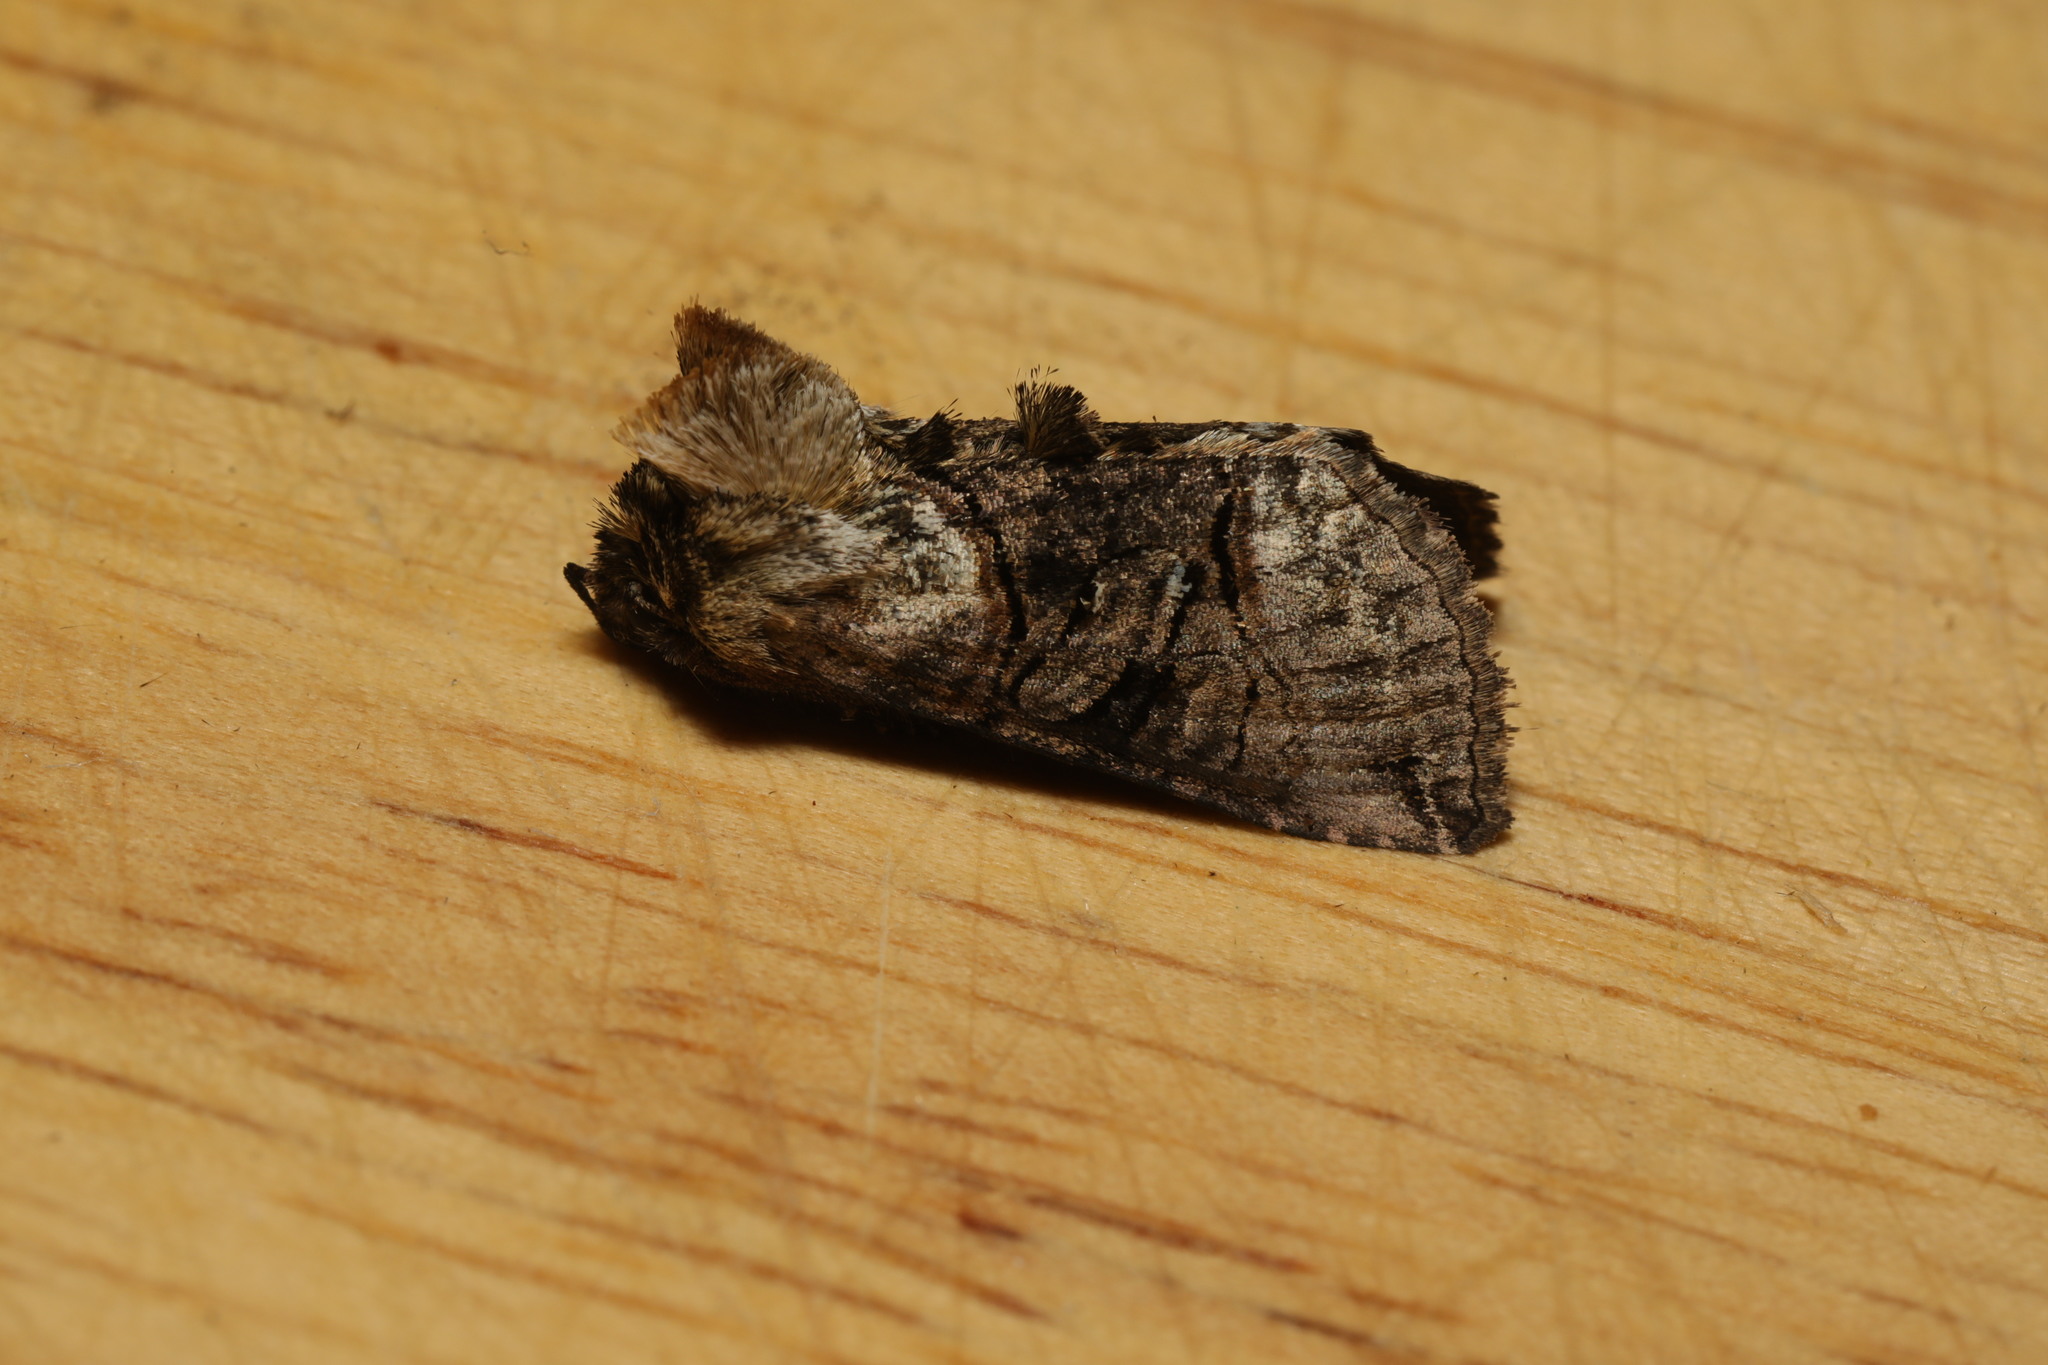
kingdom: Animalia
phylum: Arthropoda
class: Insecta
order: Lepidoptera
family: Noctuidae
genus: Abrostola
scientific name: Abrostola tripartita
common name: Spectacle
